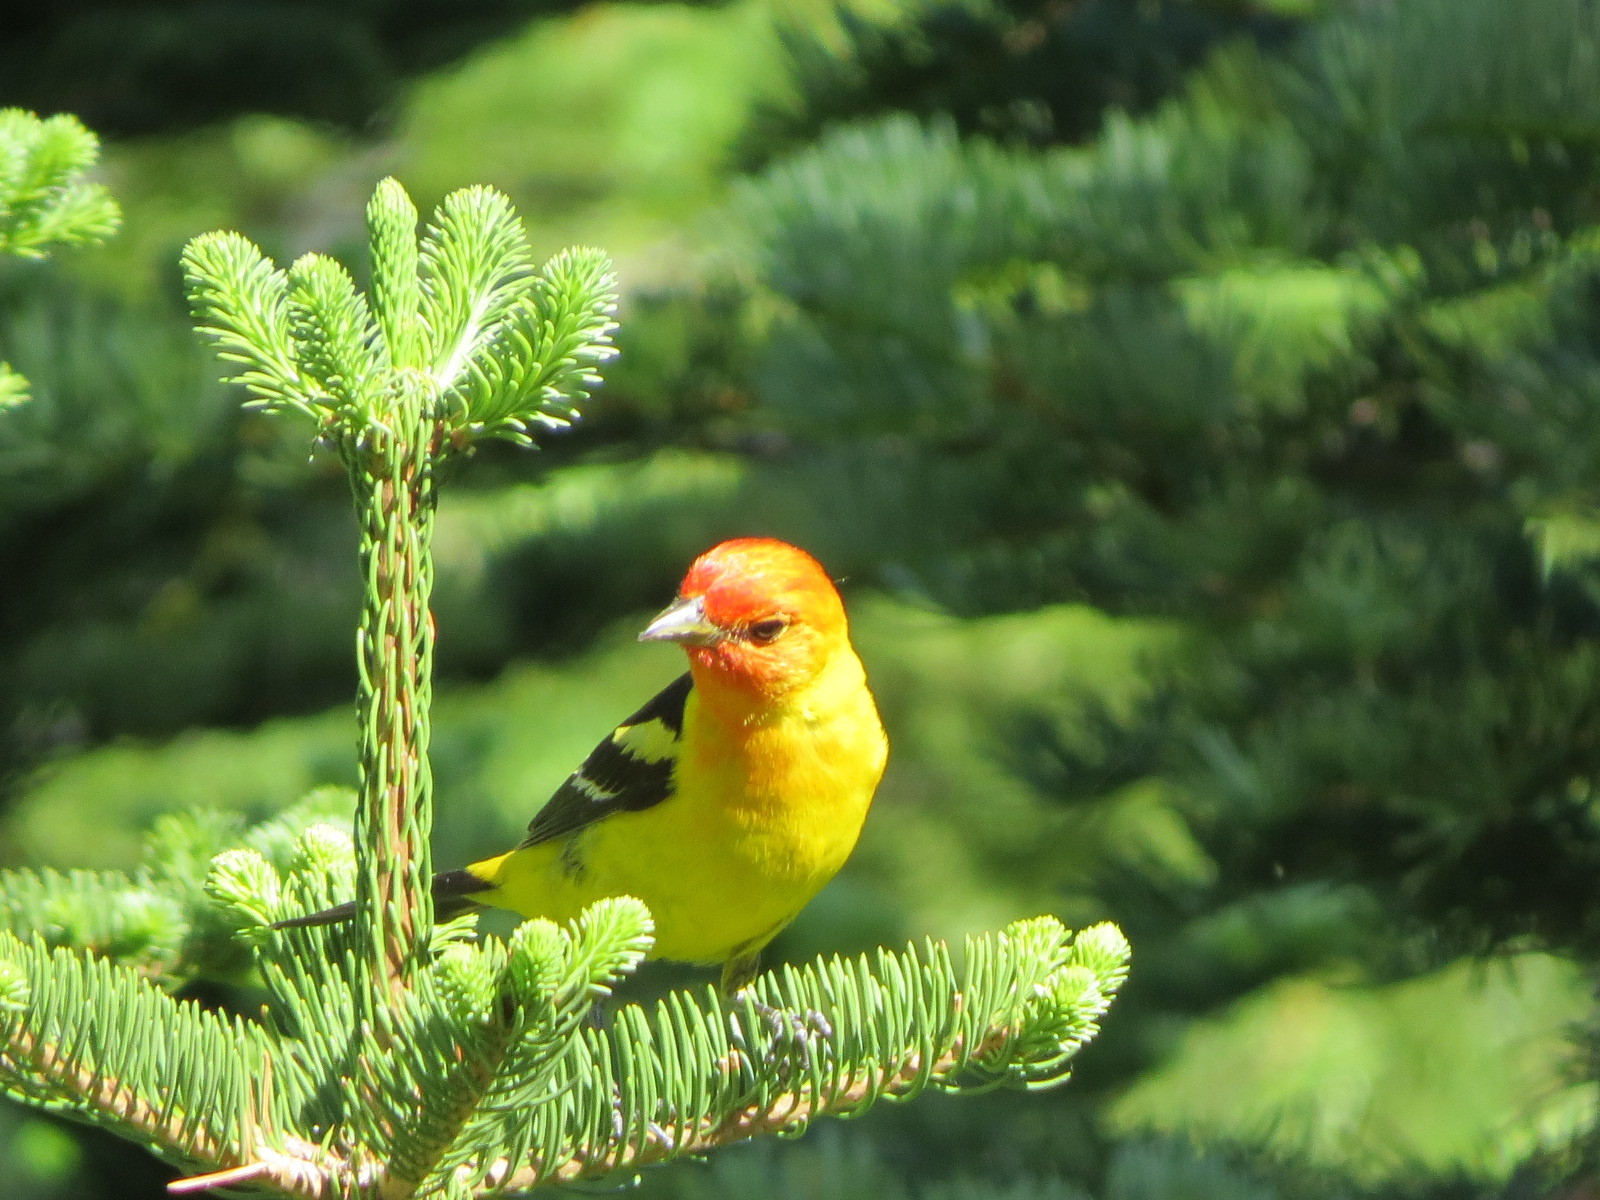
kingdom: Animalia
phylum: Chordata
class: Aves
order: Passeriformes
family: Cardinalidae
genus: Piranga
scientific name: Piranga ludoviciana
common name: Western tanager
